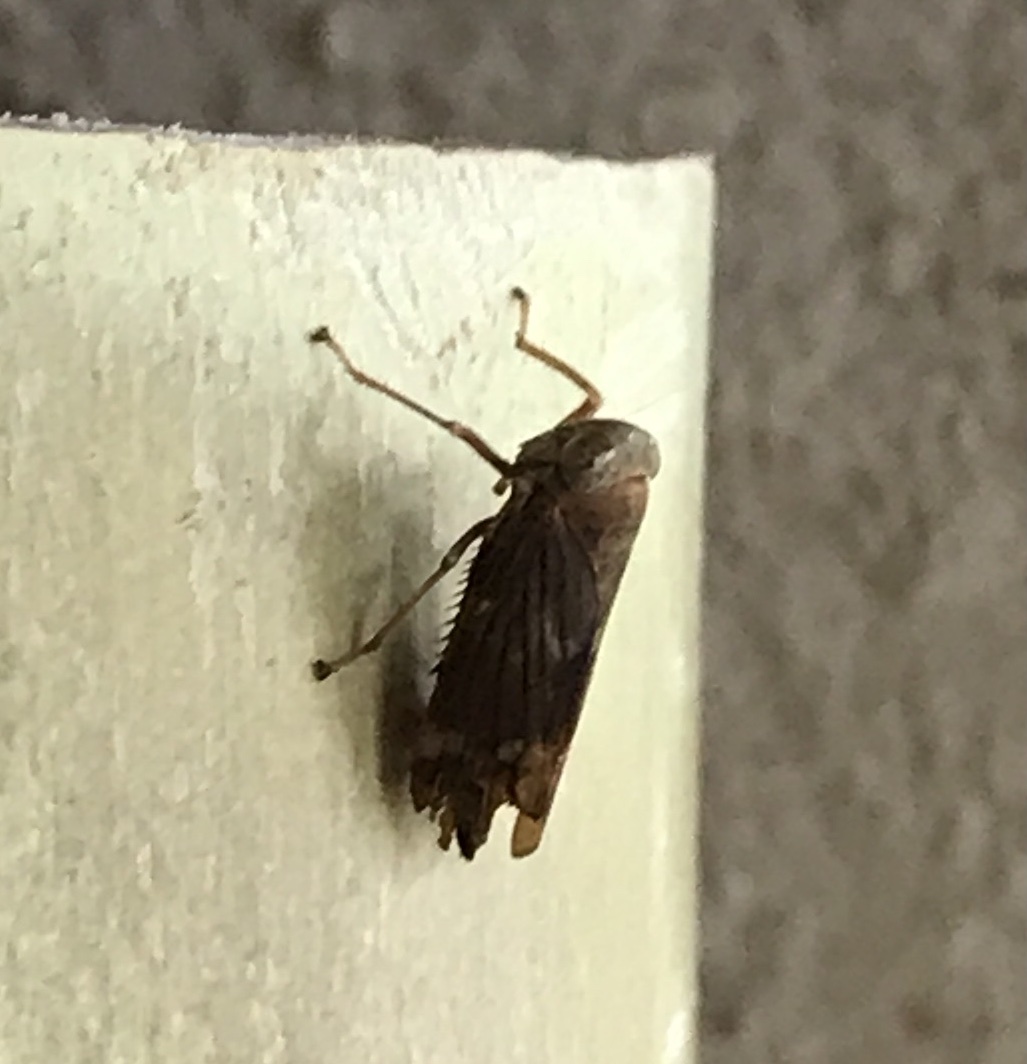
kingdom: Animalia
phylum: Arthropoda
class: Insecta
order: Hemiptera
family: Cicadellidae
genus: Jikradia
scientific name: Jikradia olitoria
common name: Coppery leafhopper
